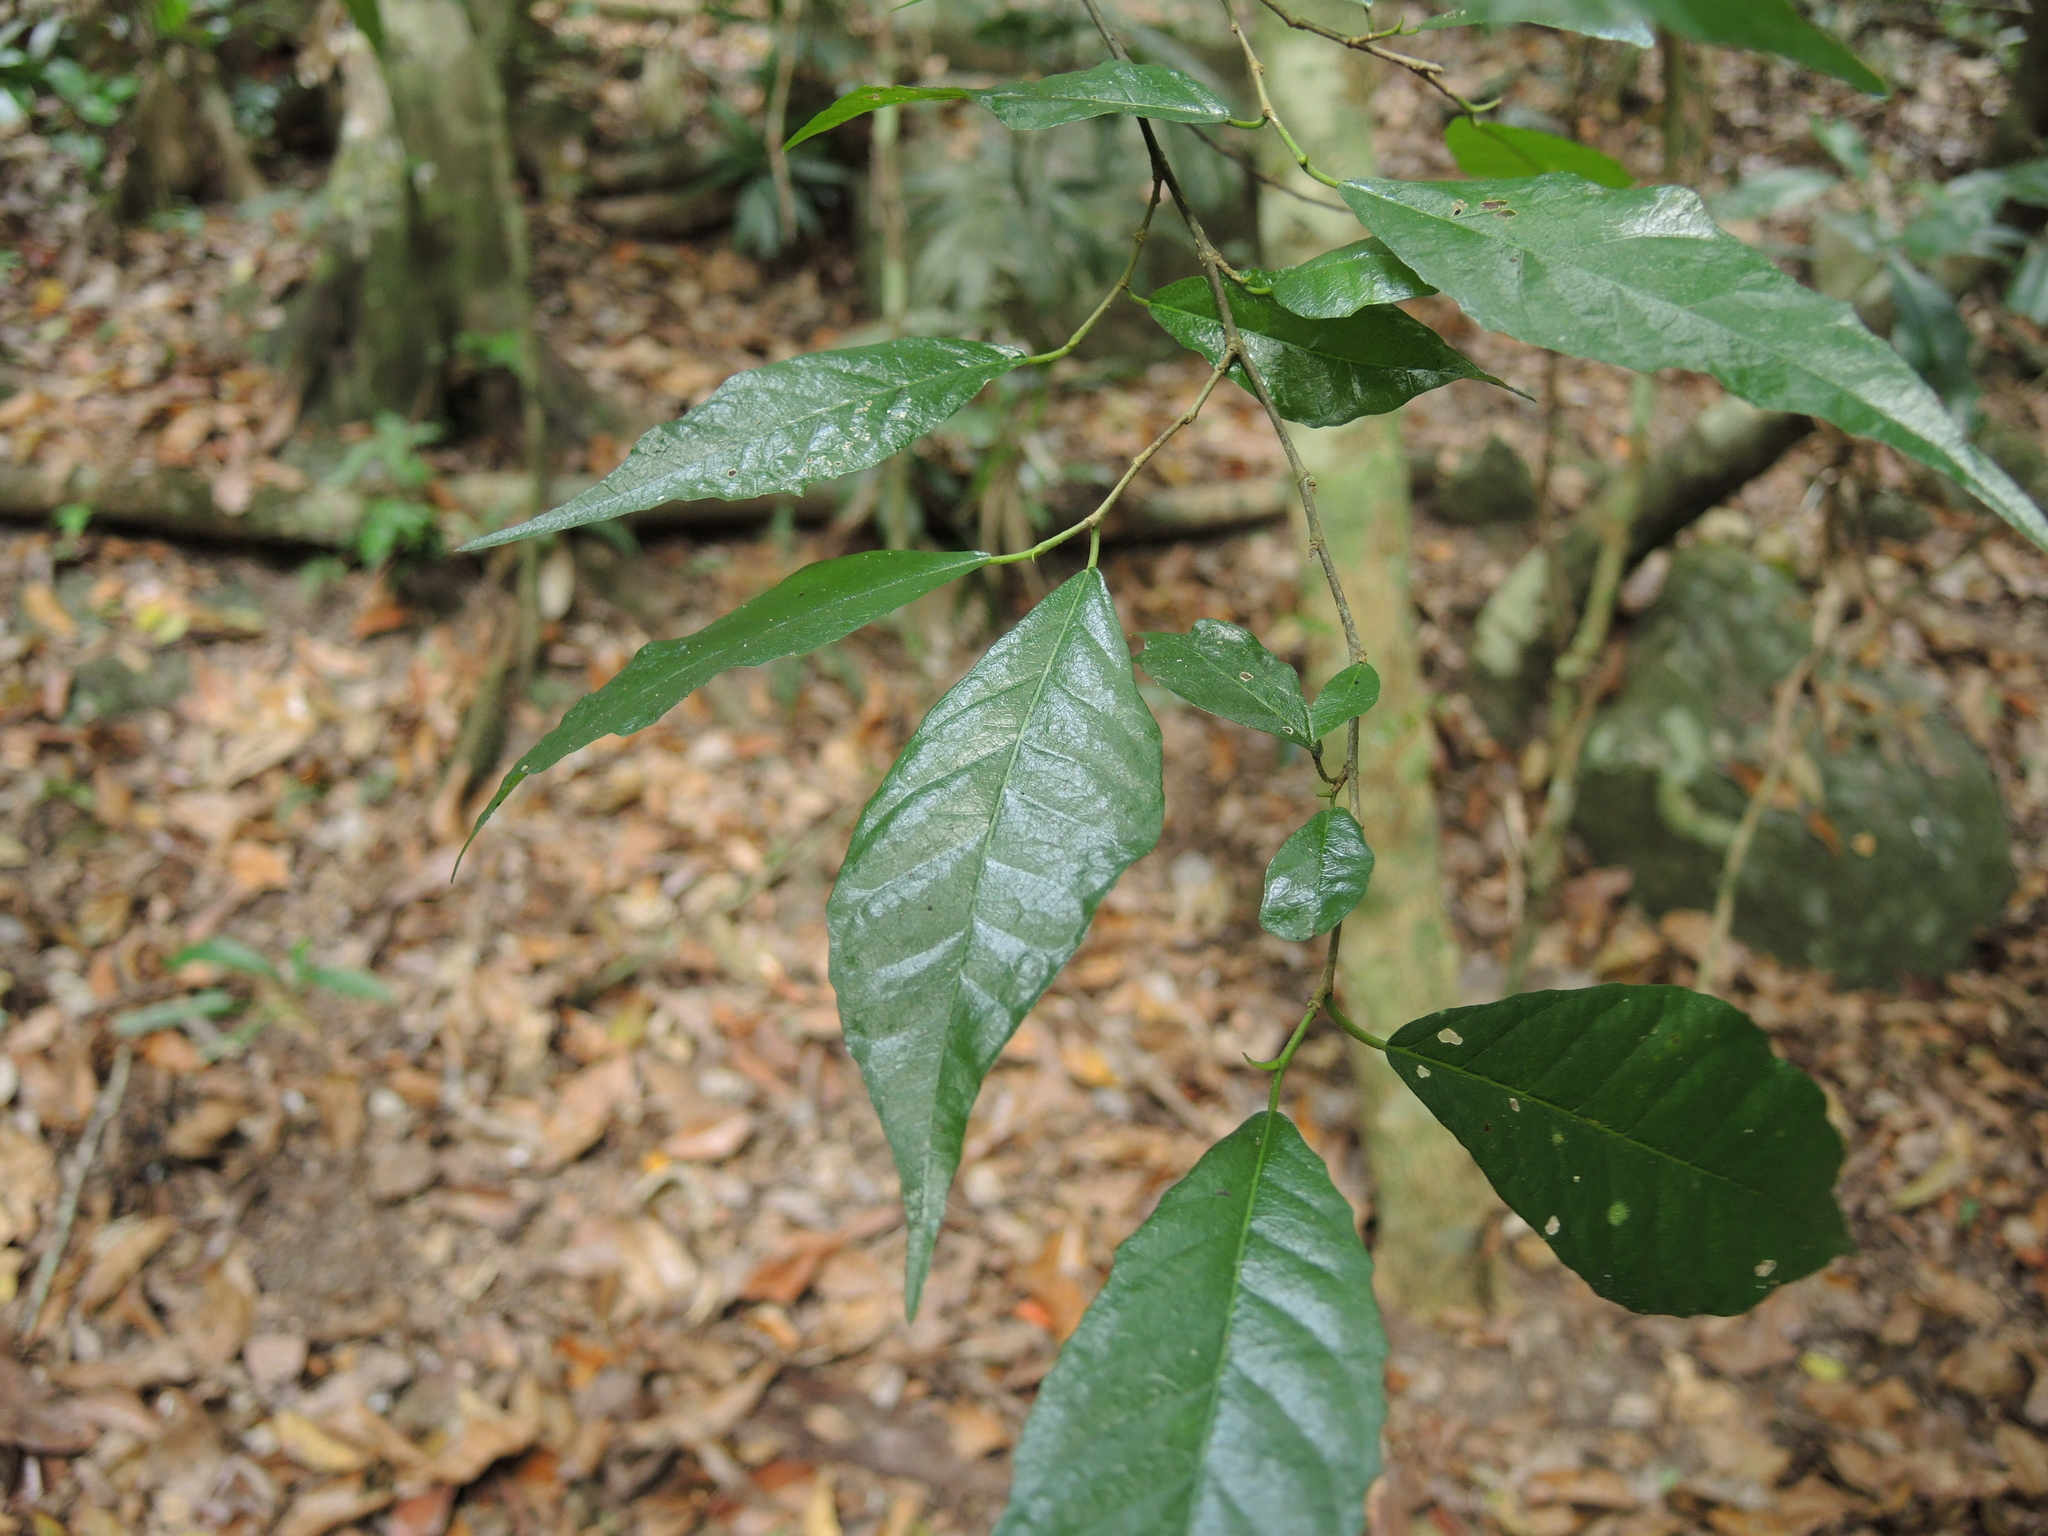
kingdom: Plantae
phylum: Tracheophyta
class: Magnoliopsida
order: Rosales
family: Moraceae
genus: Paratrophis
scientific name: Paratrophis pendulina
